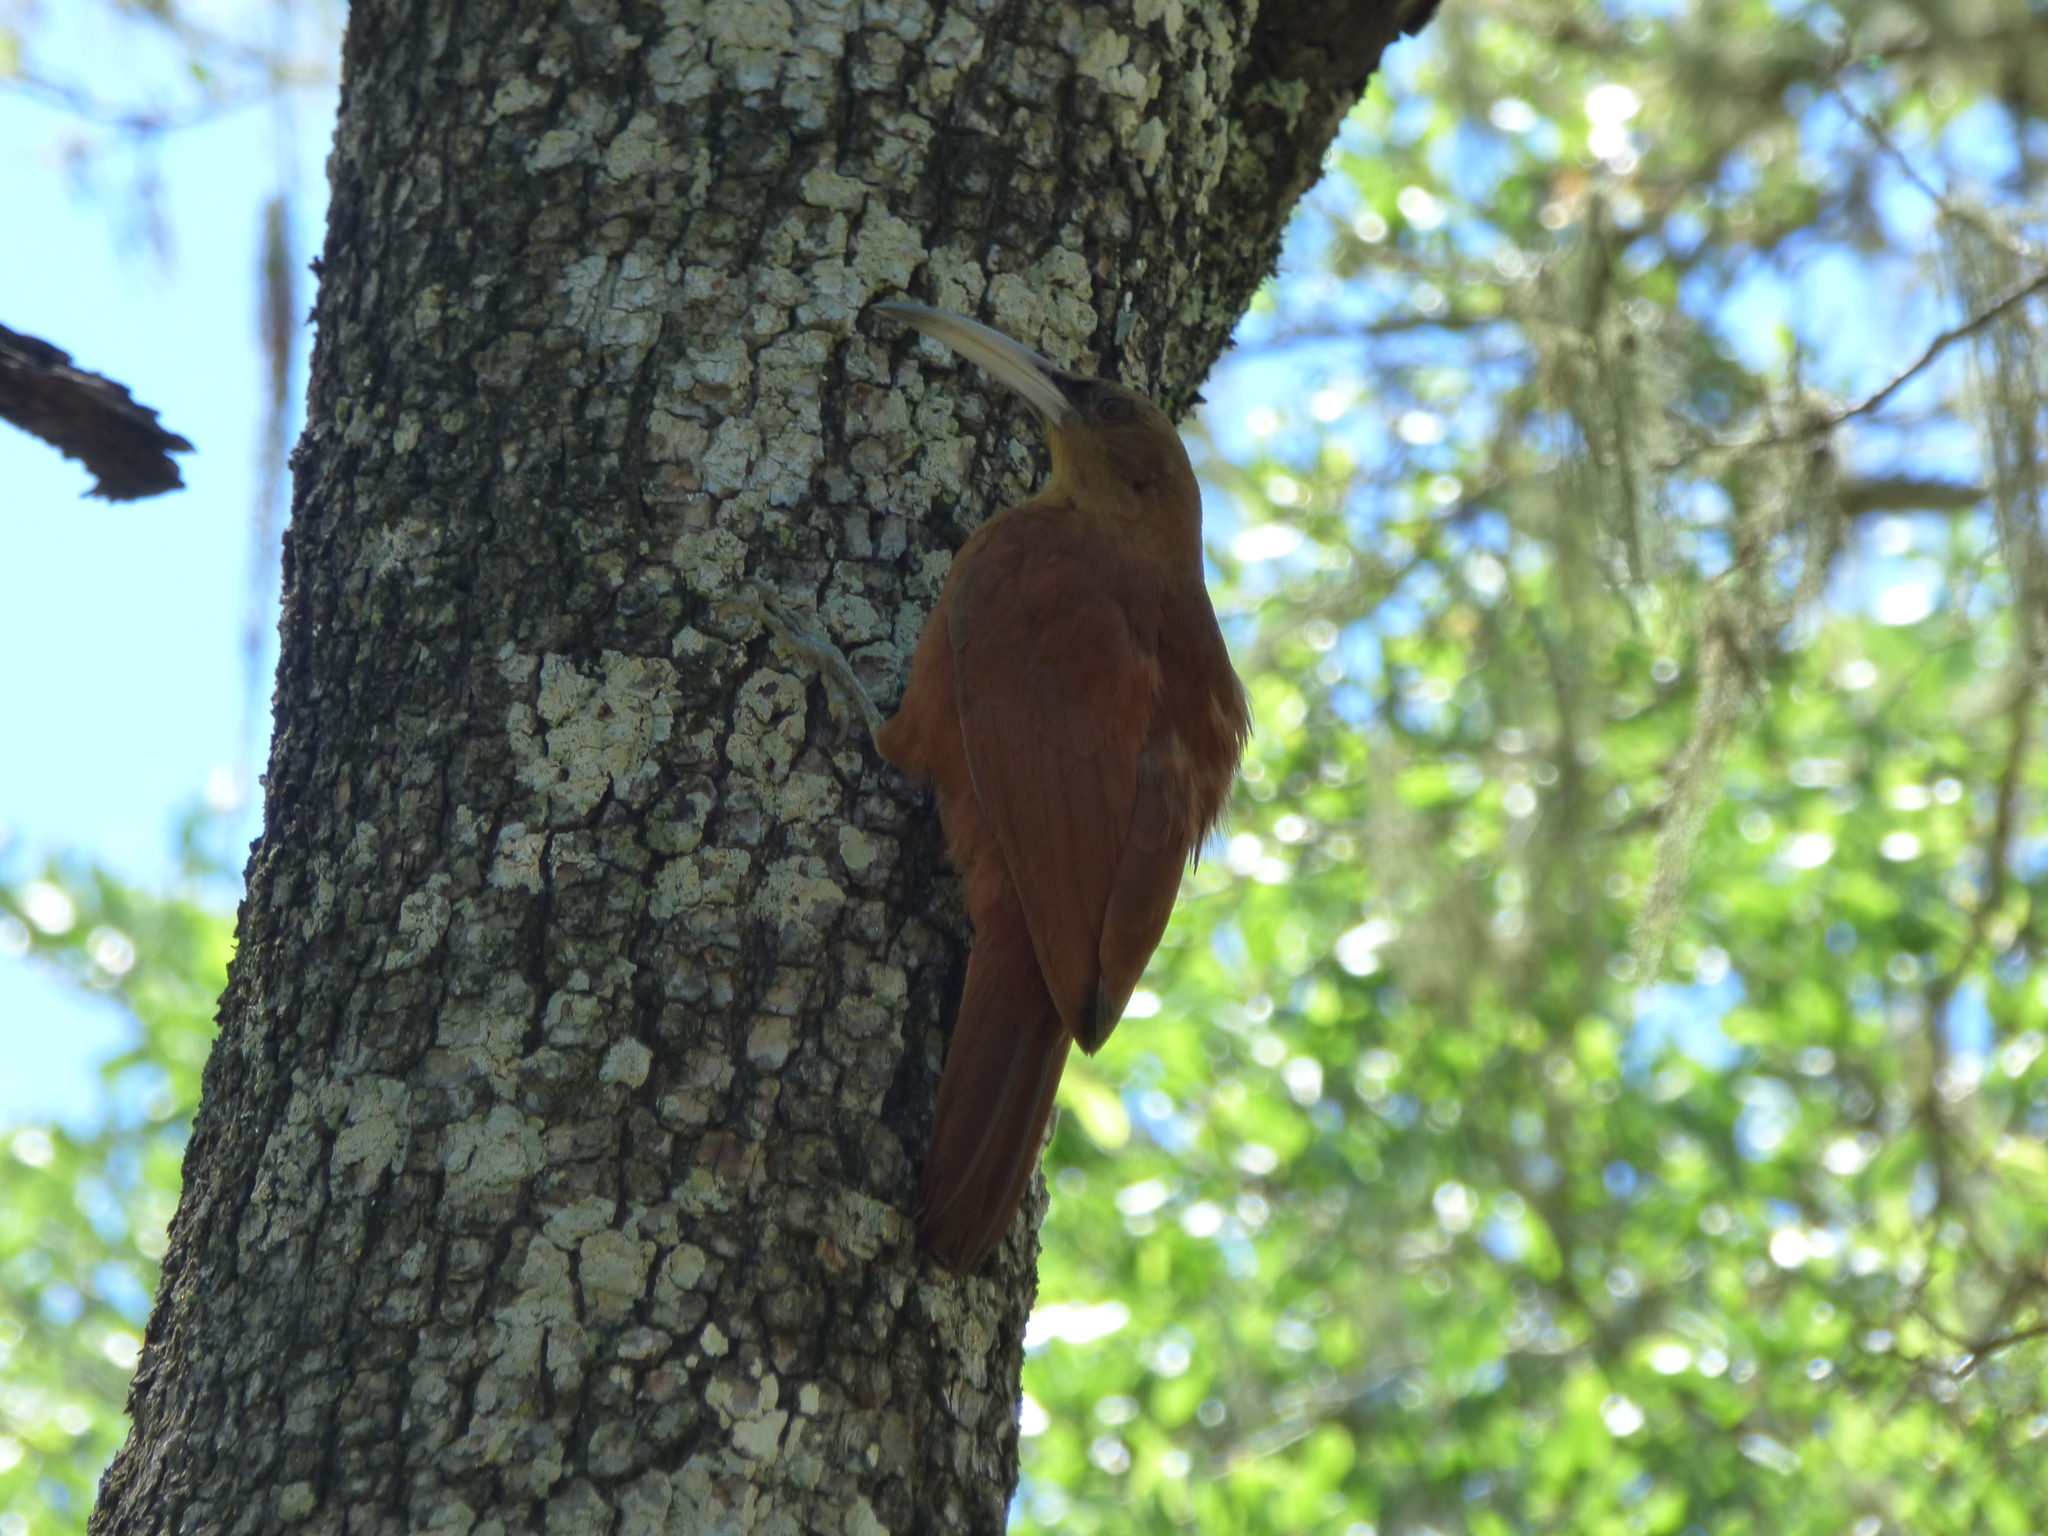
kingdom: Animalia
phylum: Chordata
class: Aves
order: Passeriformes
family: Furnariidae
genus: Xiphocolaptes
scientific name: Xiphocolaptes major
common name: Great rufous woodcreeper
